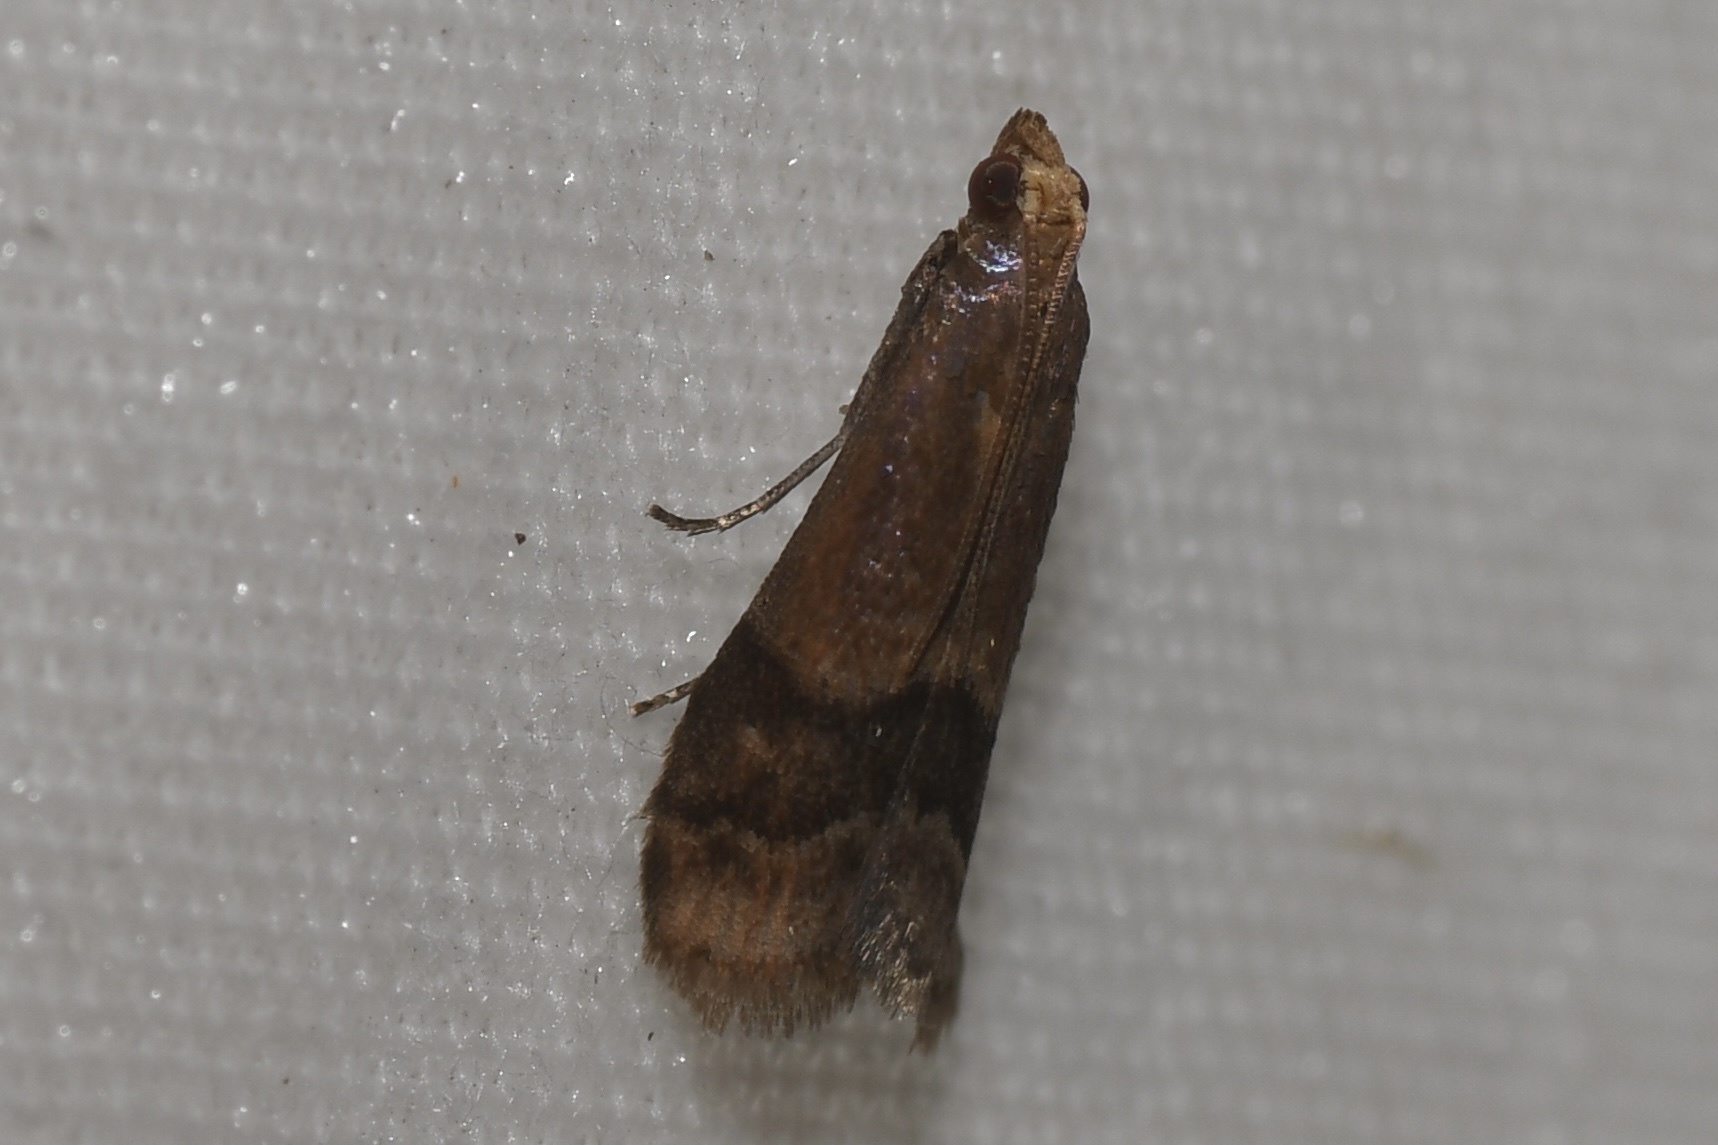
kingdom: Animalia
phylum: Arthropoda
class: Insecta
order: Lepidoptera
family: Pyralidae
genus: Eulogia
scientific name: Eulogia ochrifrontella
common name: Broad-banded eulogia moth
